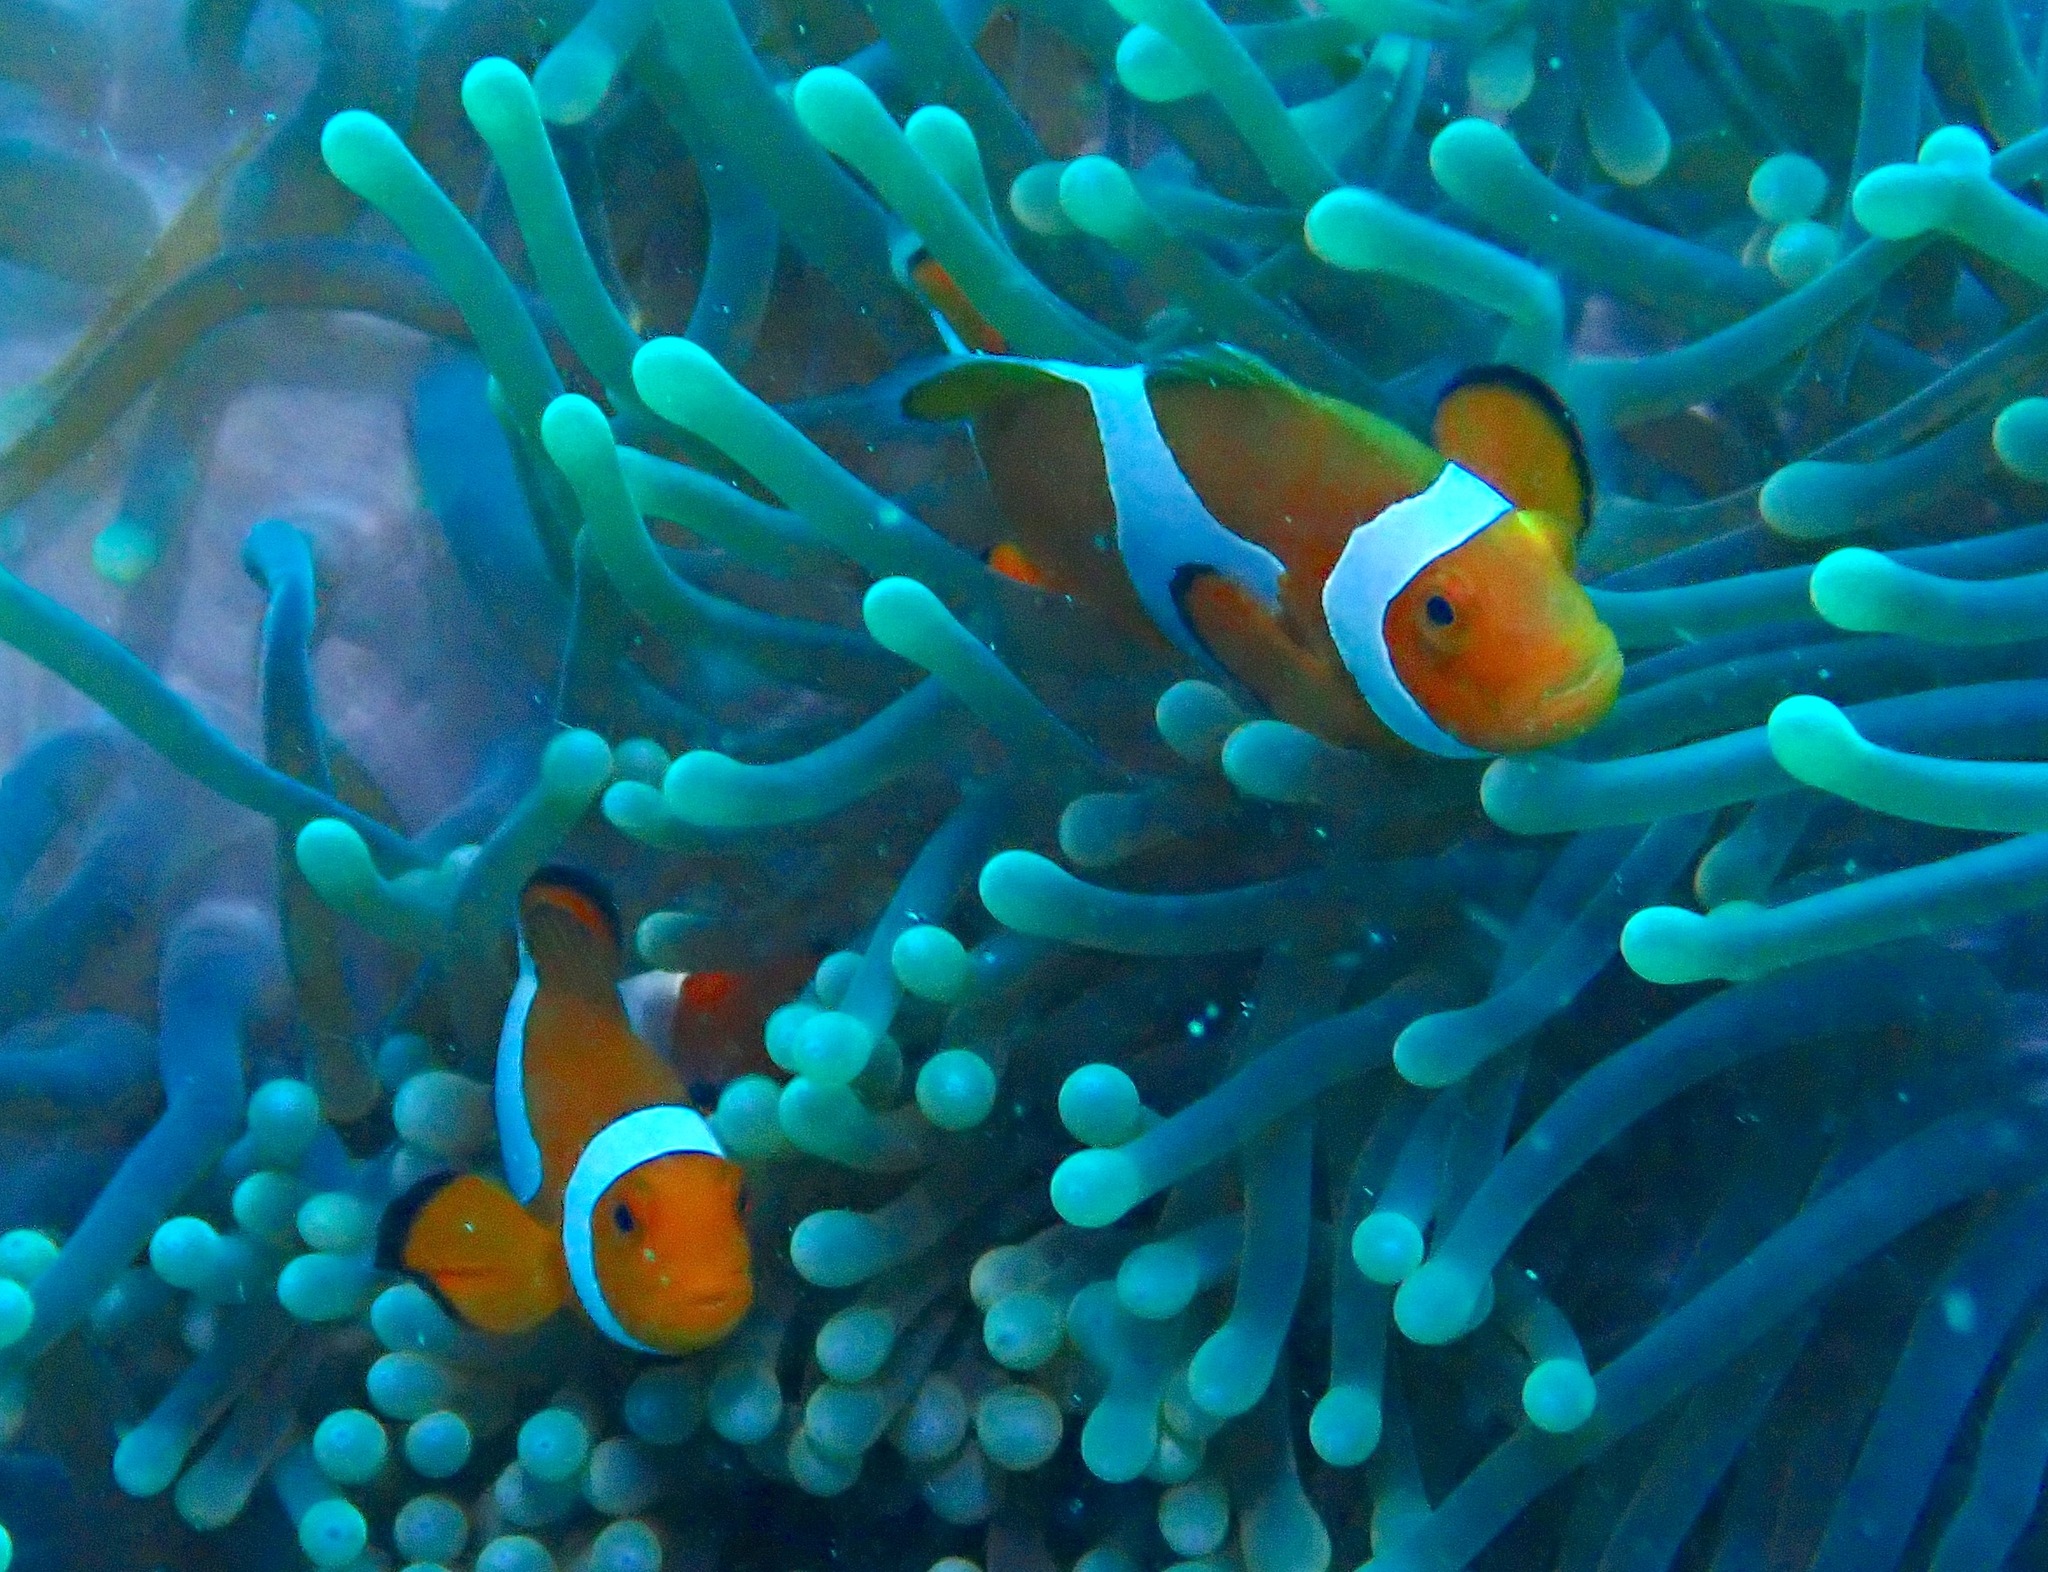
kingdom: Animalia
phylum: Chordata
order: Perciformes
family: Pomacentridae
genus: Amphiprion
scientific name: Amphiprion ocellaris
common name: Clown anemonefish
